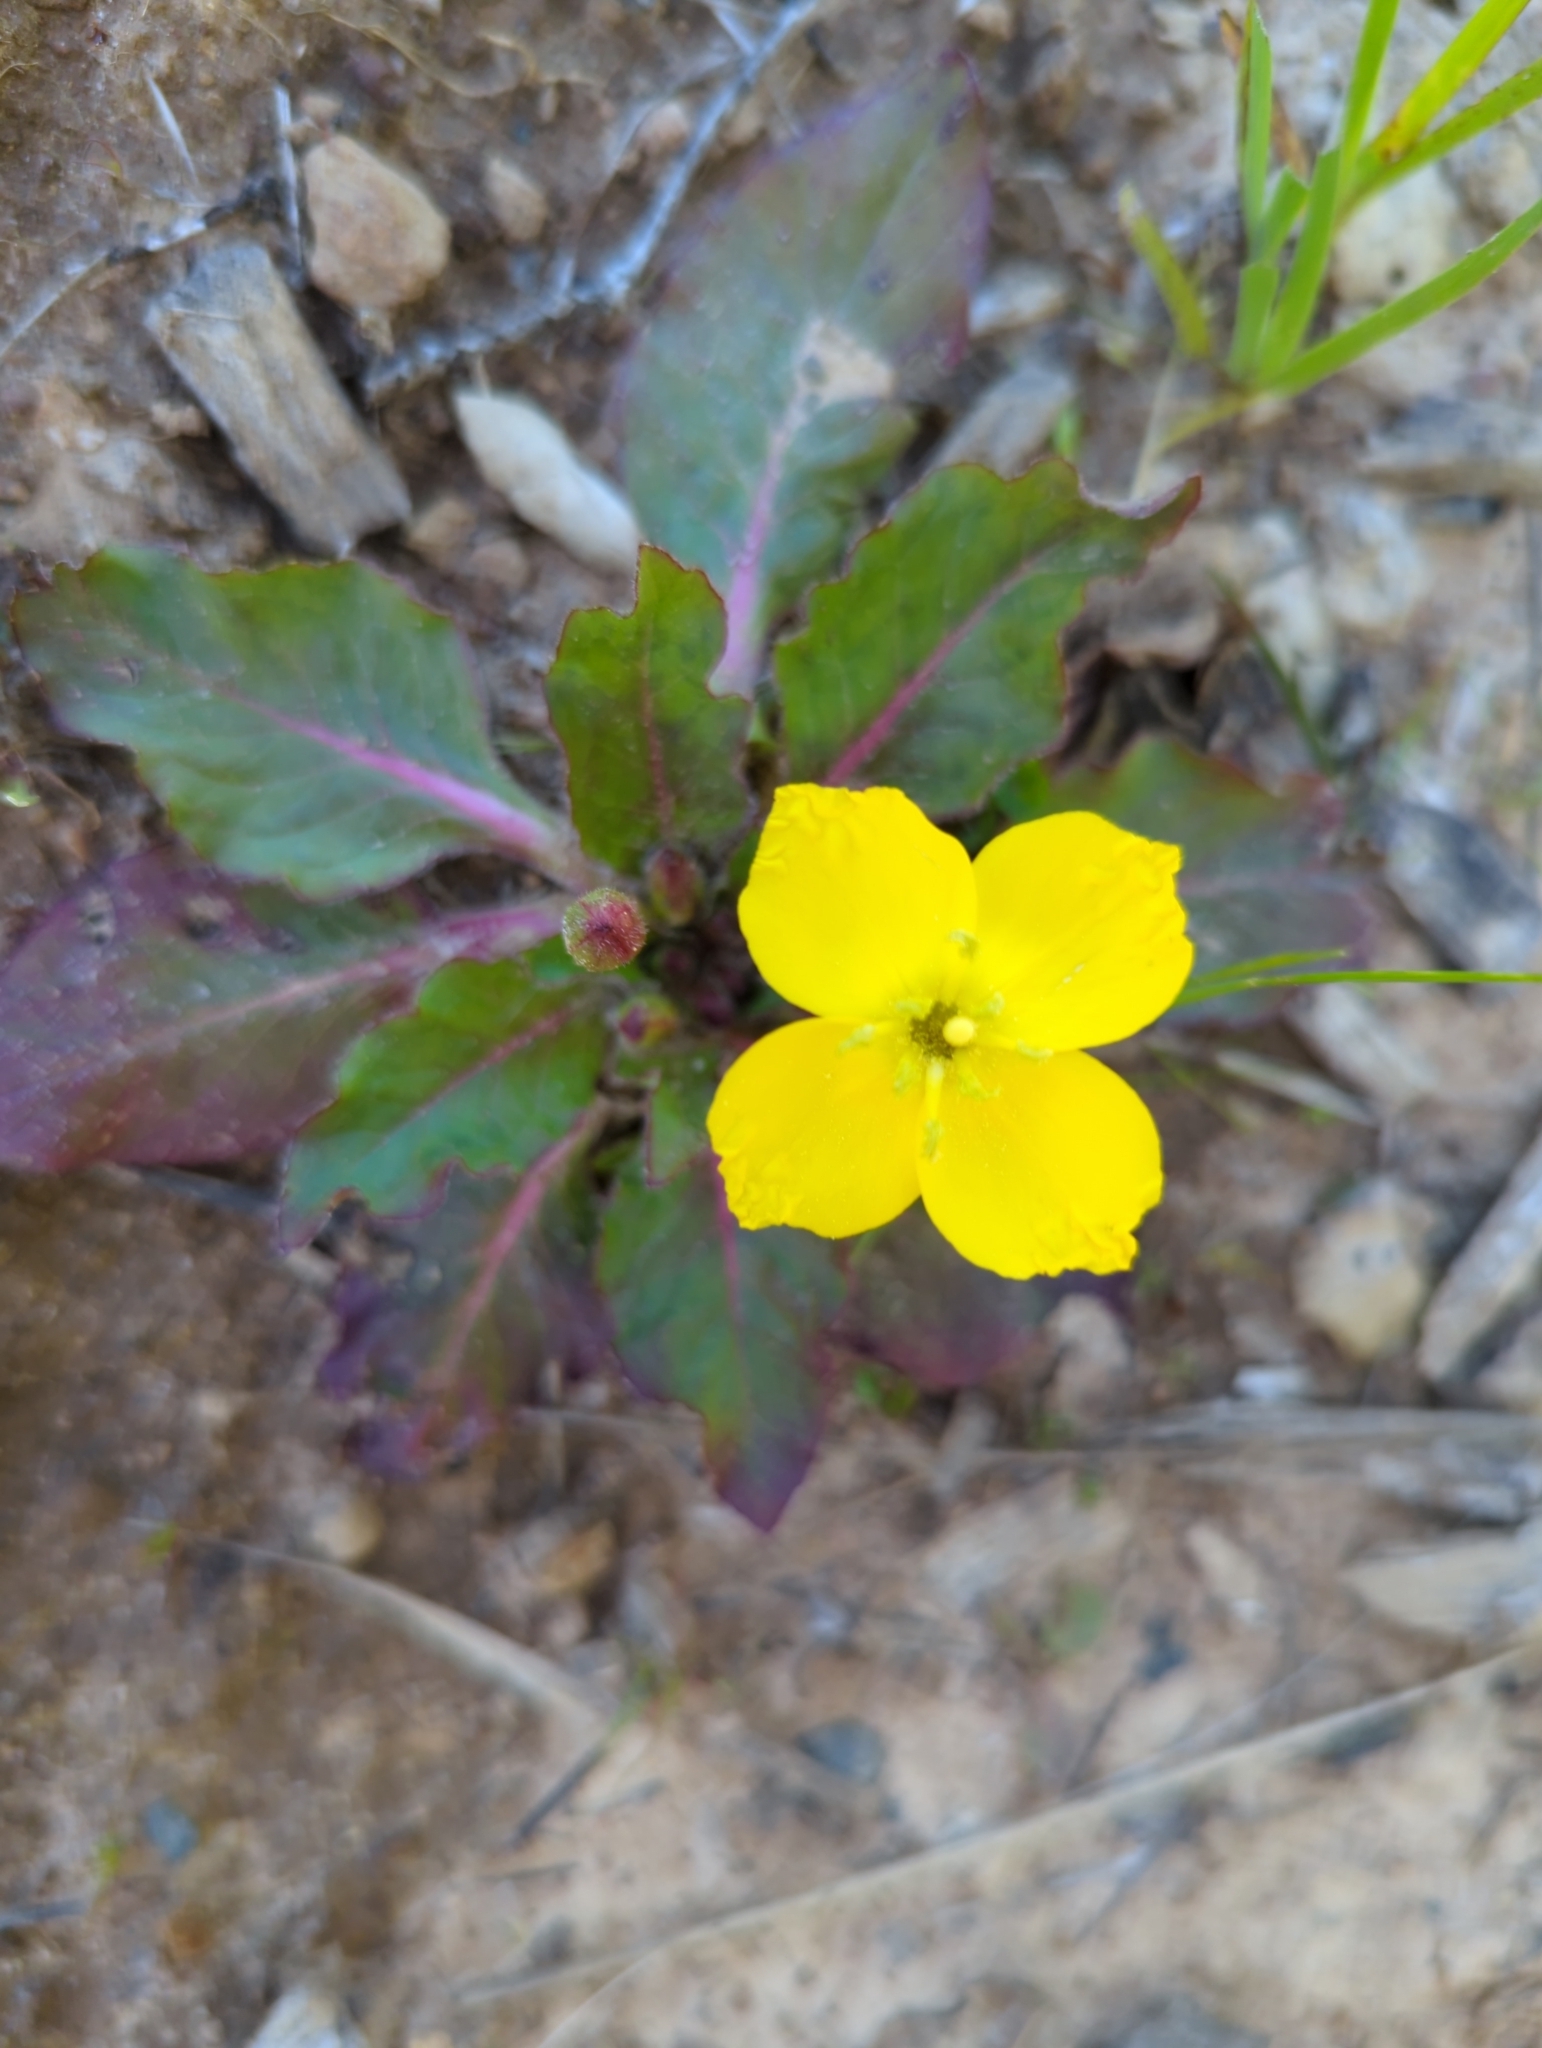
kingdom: Plantae
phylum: Tracheophyta
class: Magnoliopsida
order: Myrtales
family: Onagraceae
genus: Taraxia
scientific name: Taraxia ovata
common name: Goldeneggs
